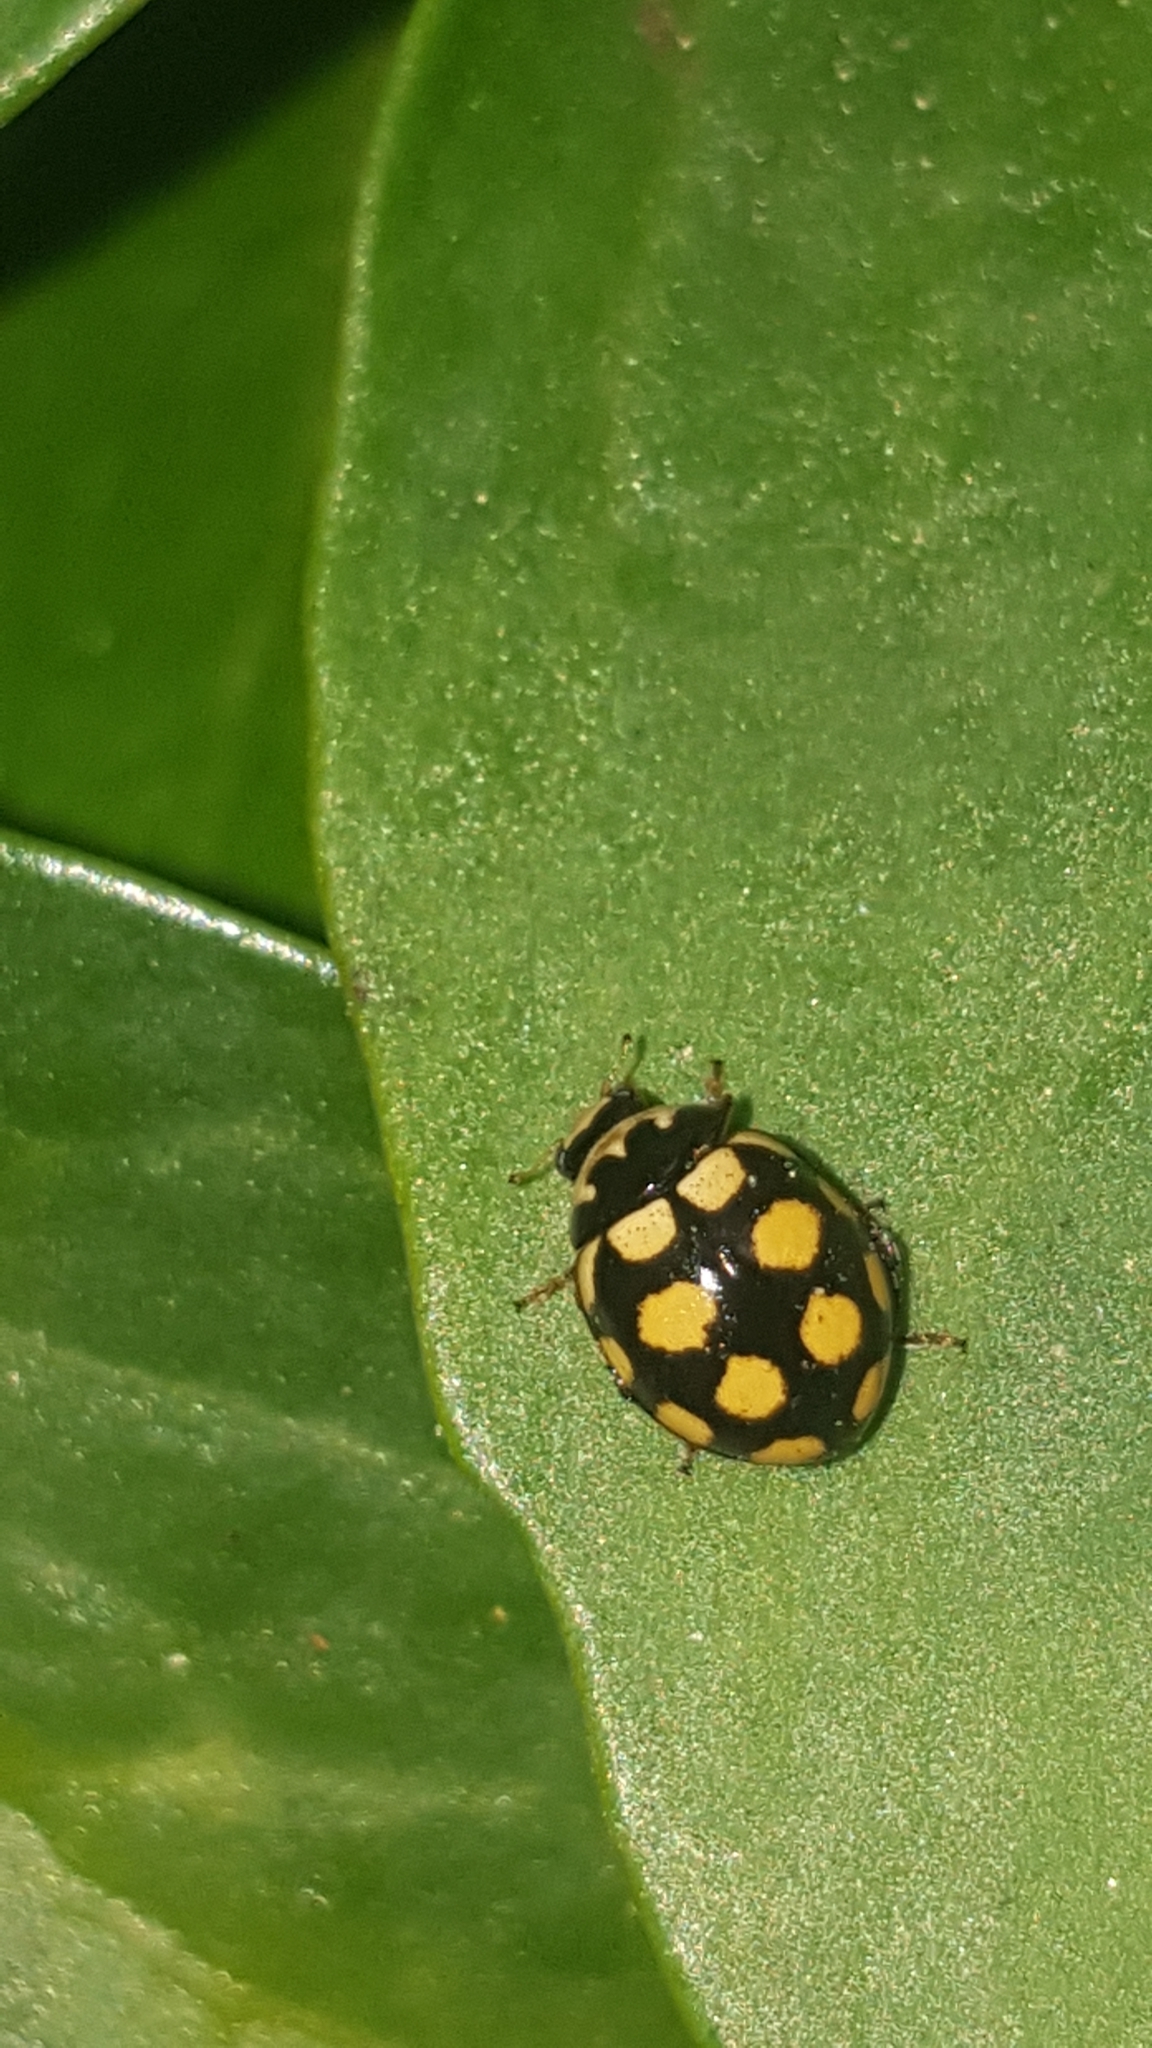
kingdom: Animalia
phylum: Arthropoda
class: Insecta
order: Coleoptera
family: Coccinellidae
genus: Coccinula
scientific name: Coccinula quatuordecimpustulata
